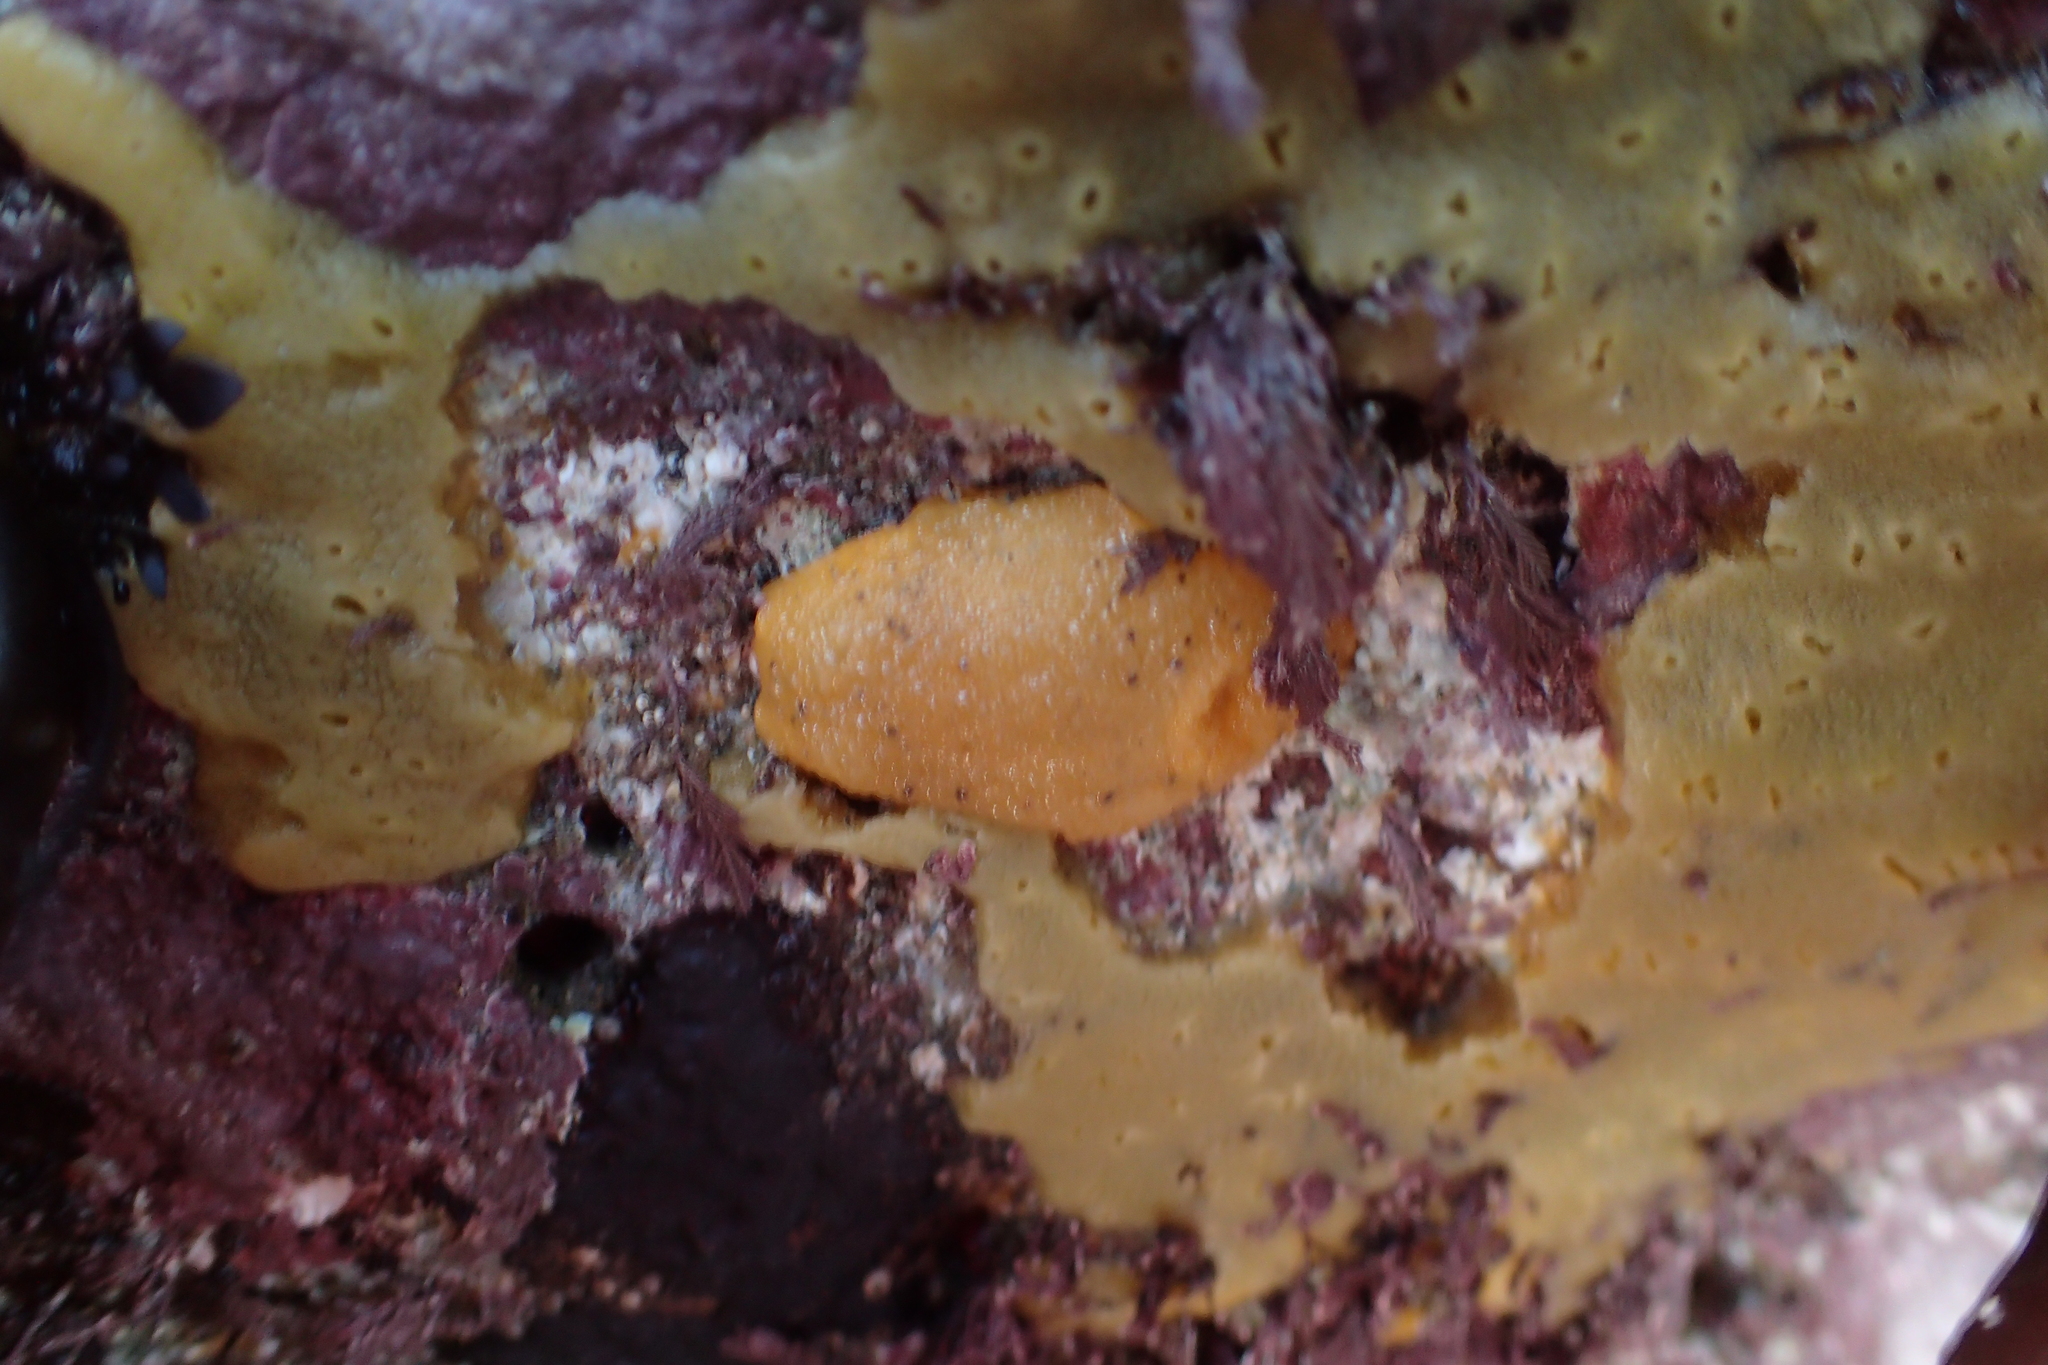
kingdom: Animalia
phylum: Mollusca
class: Gastropoda
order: Nudibranchia
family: Dorididae
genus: Doris
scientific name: Doris montereyensis
